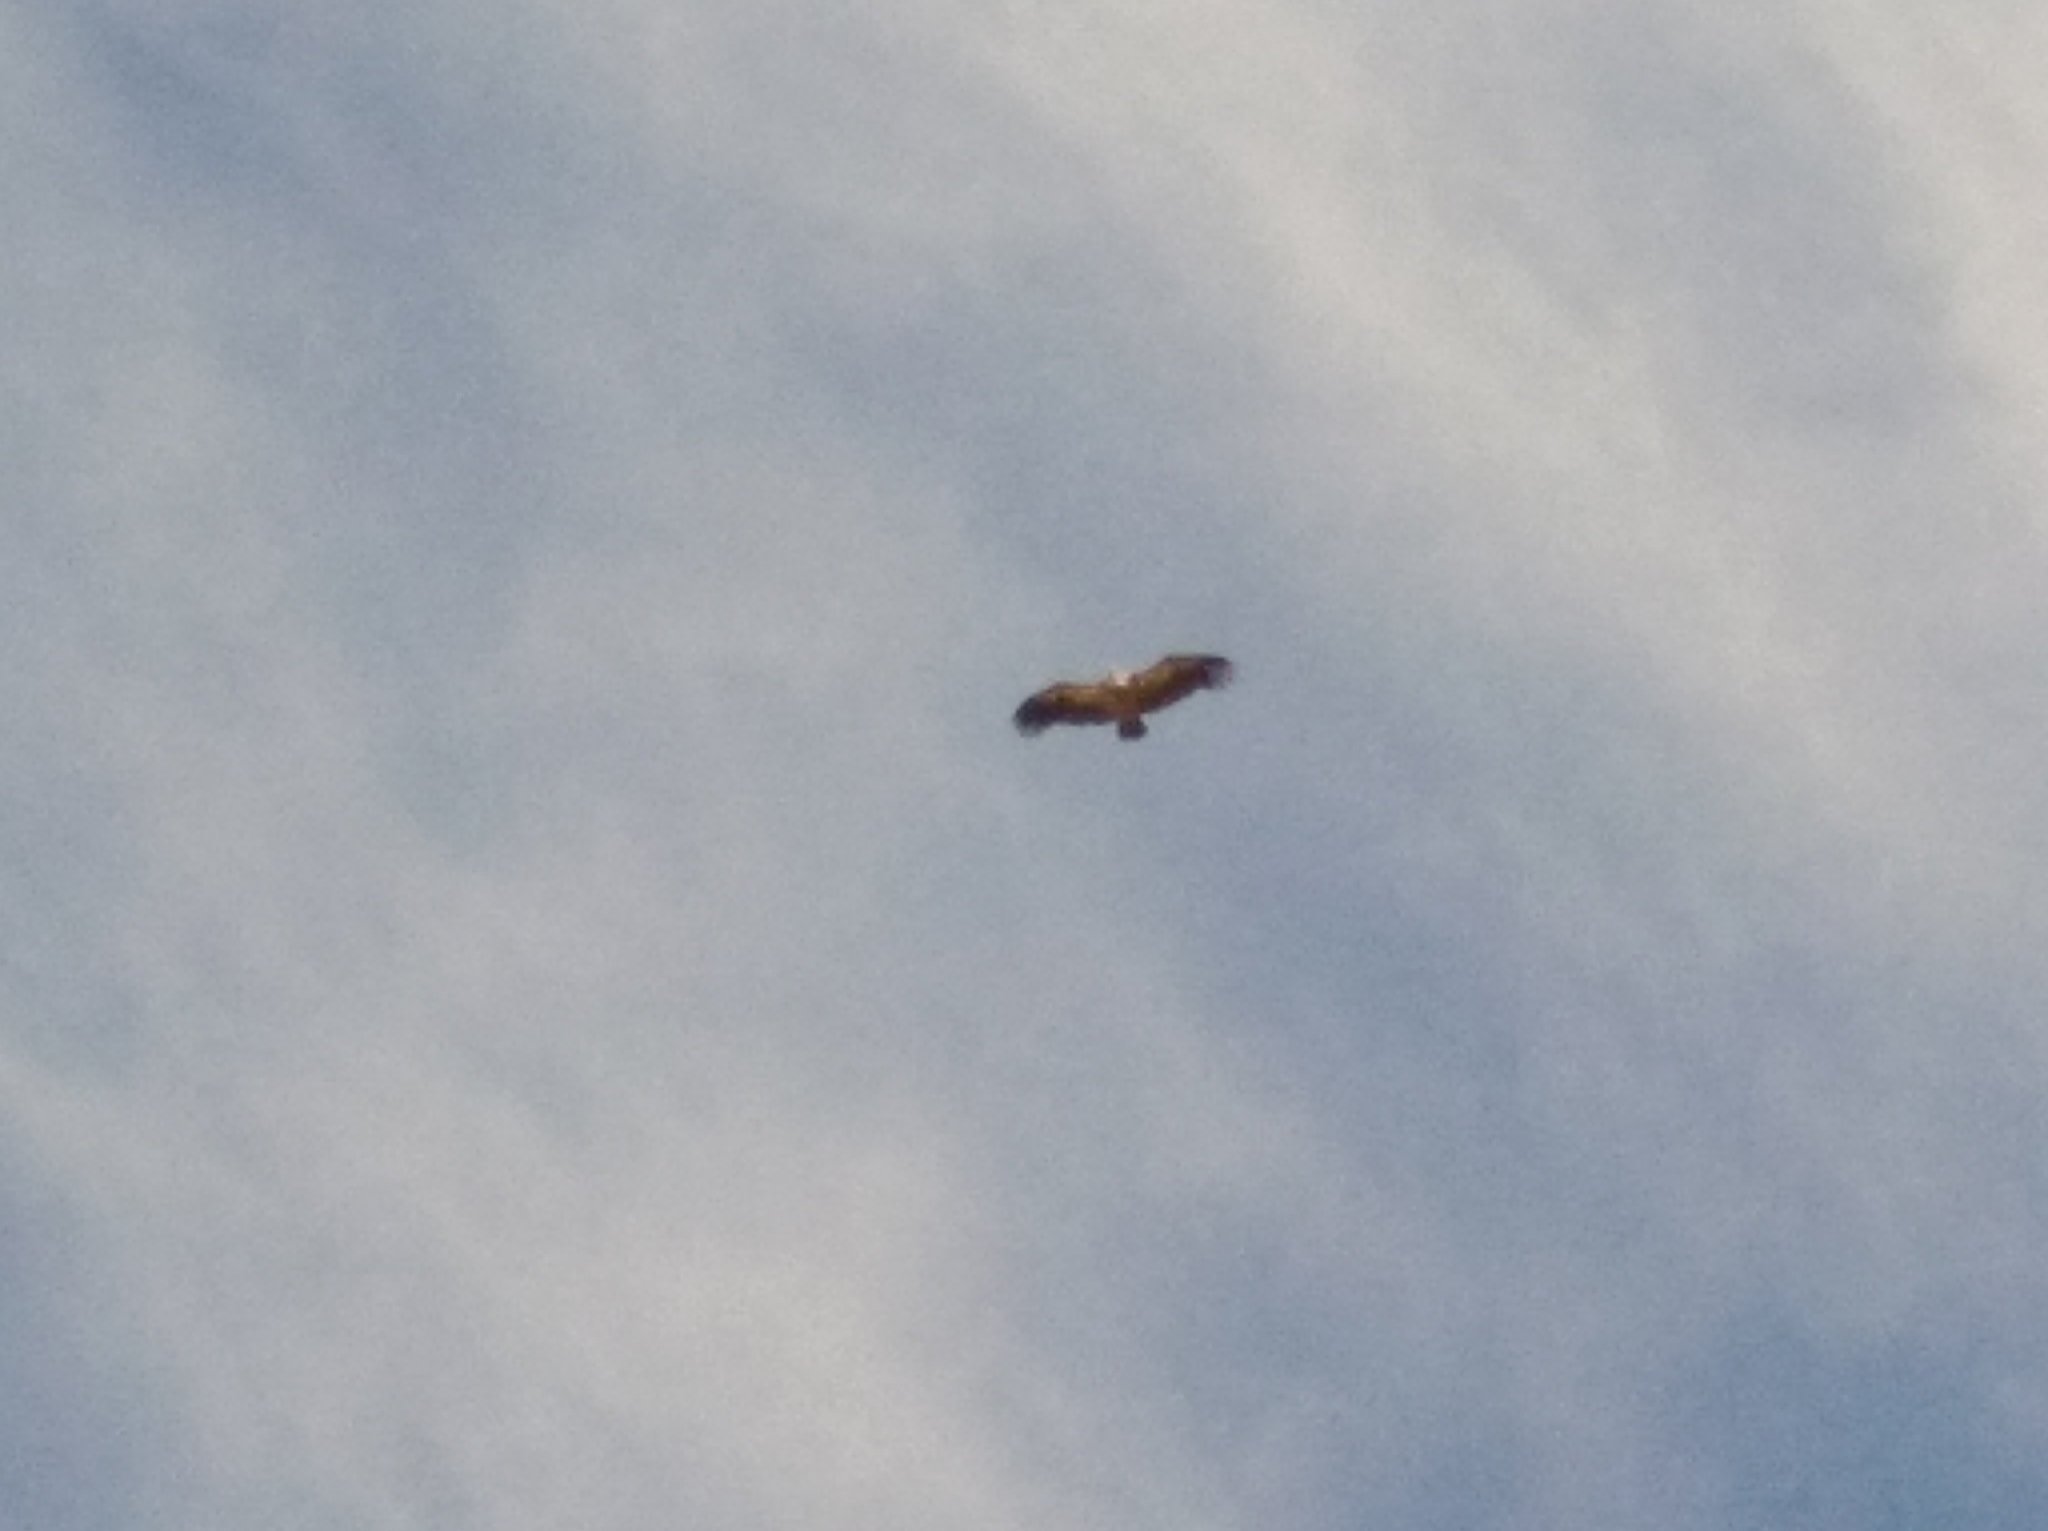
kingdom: Animalia
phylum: Chordata
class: Aves
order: Accipitriformes
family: Accipitridae
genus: Gyps
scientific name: Gyps fulvus
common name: Griffon vulture
